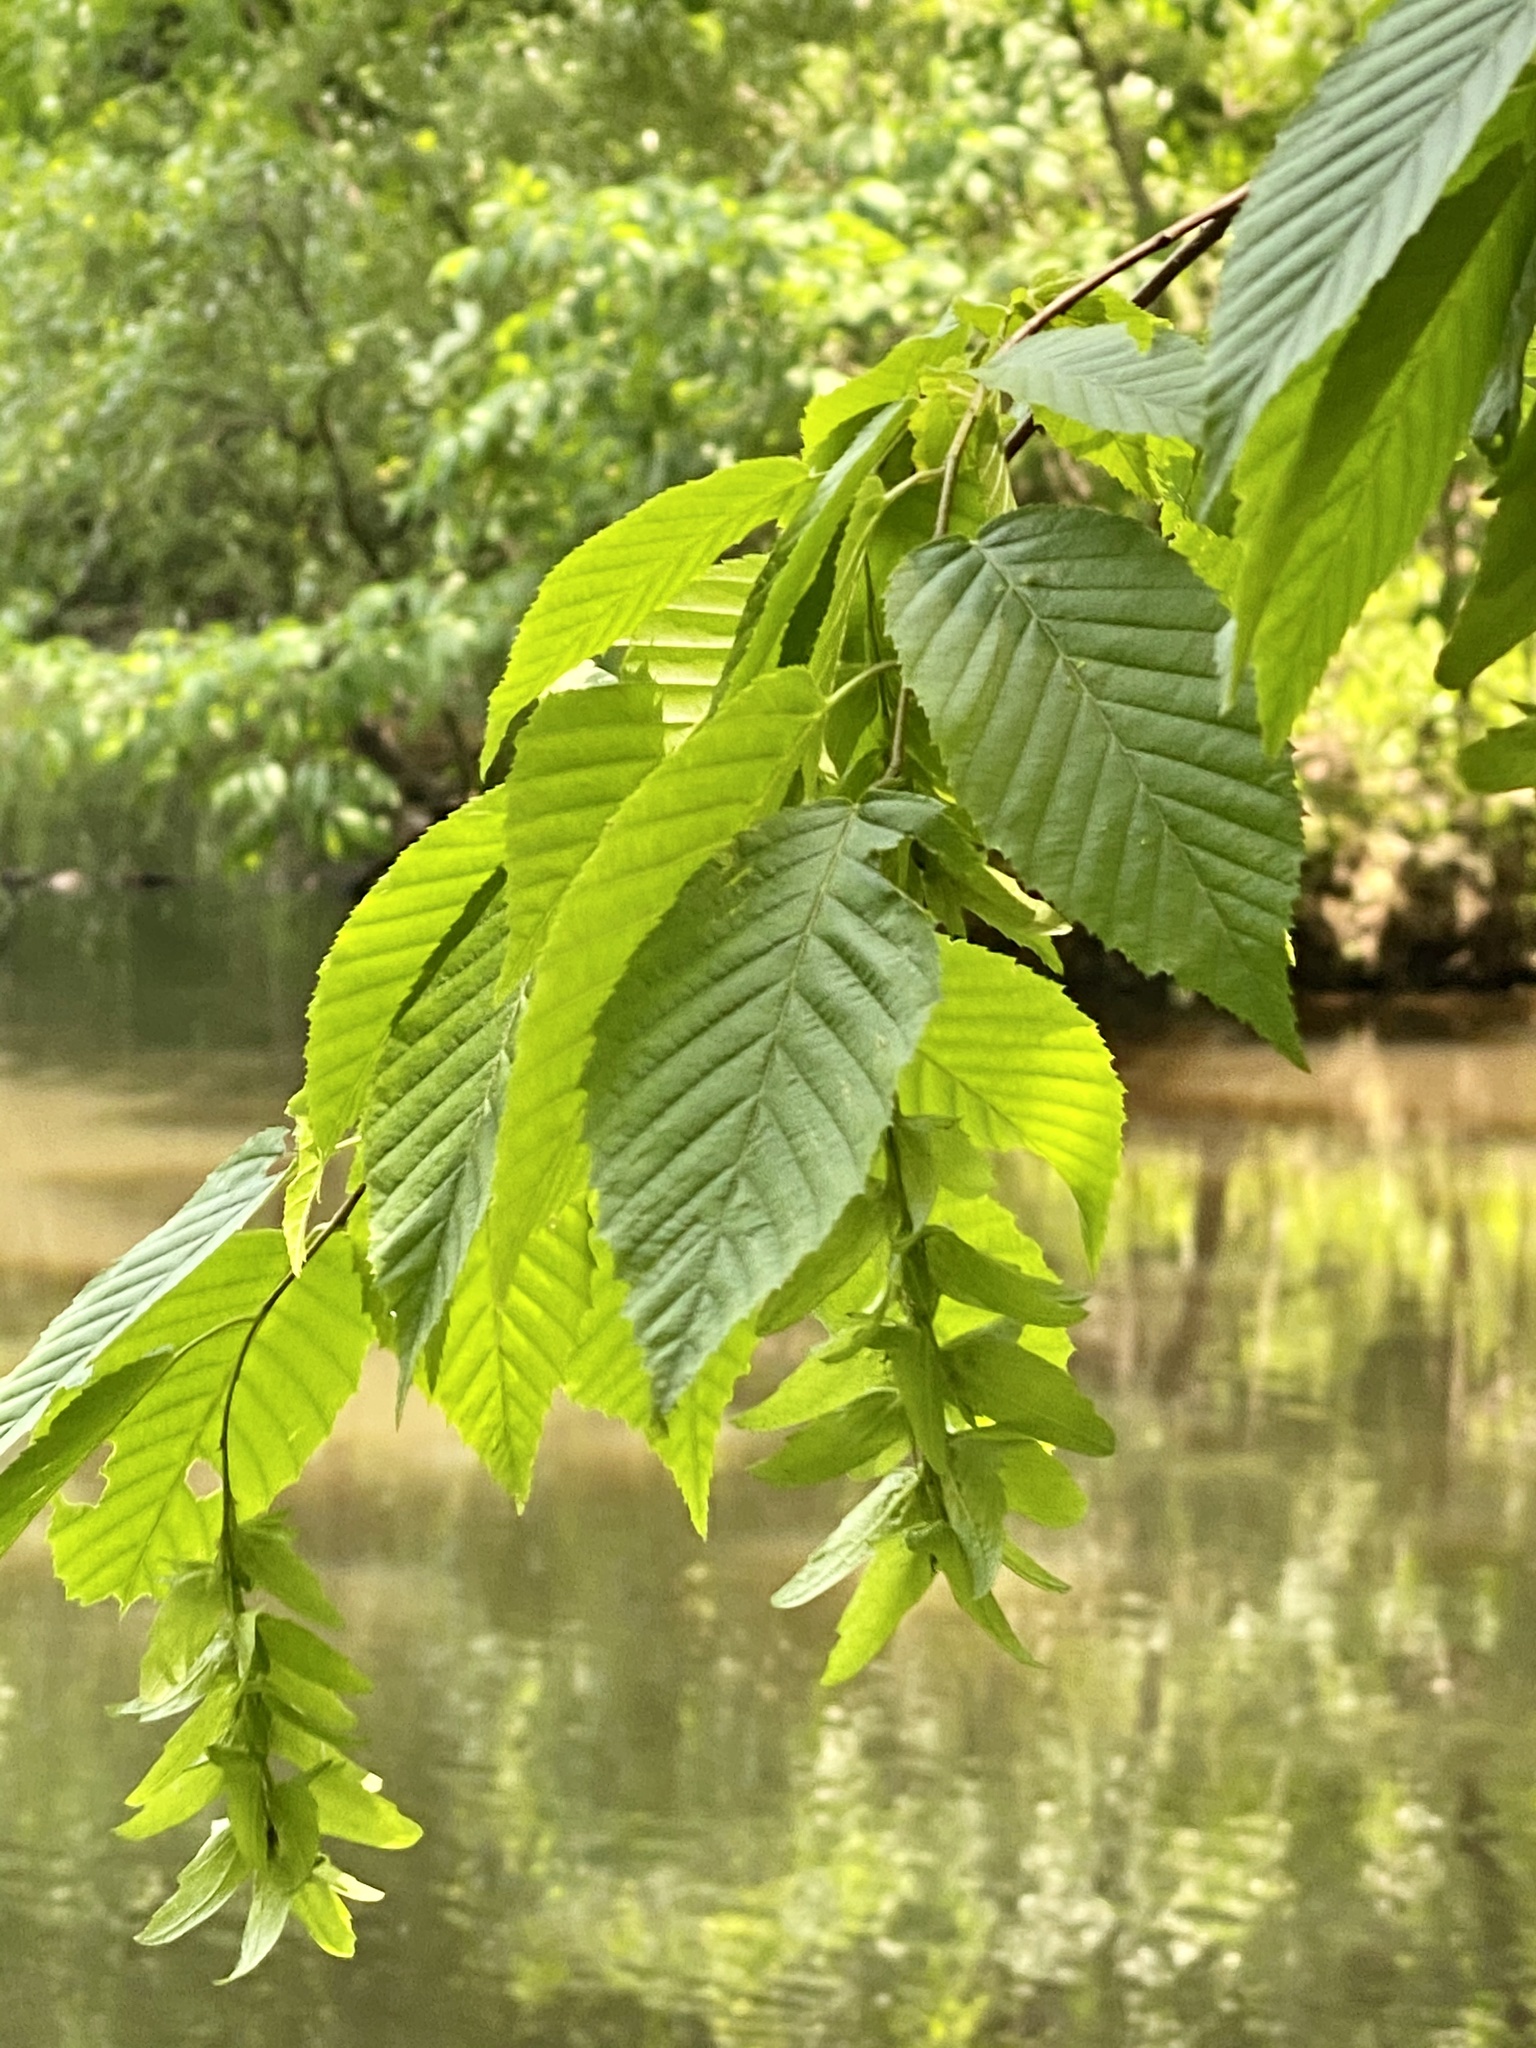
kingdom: Plantae
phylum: Tracheophyta
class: Magnoliopsida
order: Fagales
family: Betulaceae
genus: Carpinus
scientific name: Carpinus caroliniana
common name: American hornbeam
